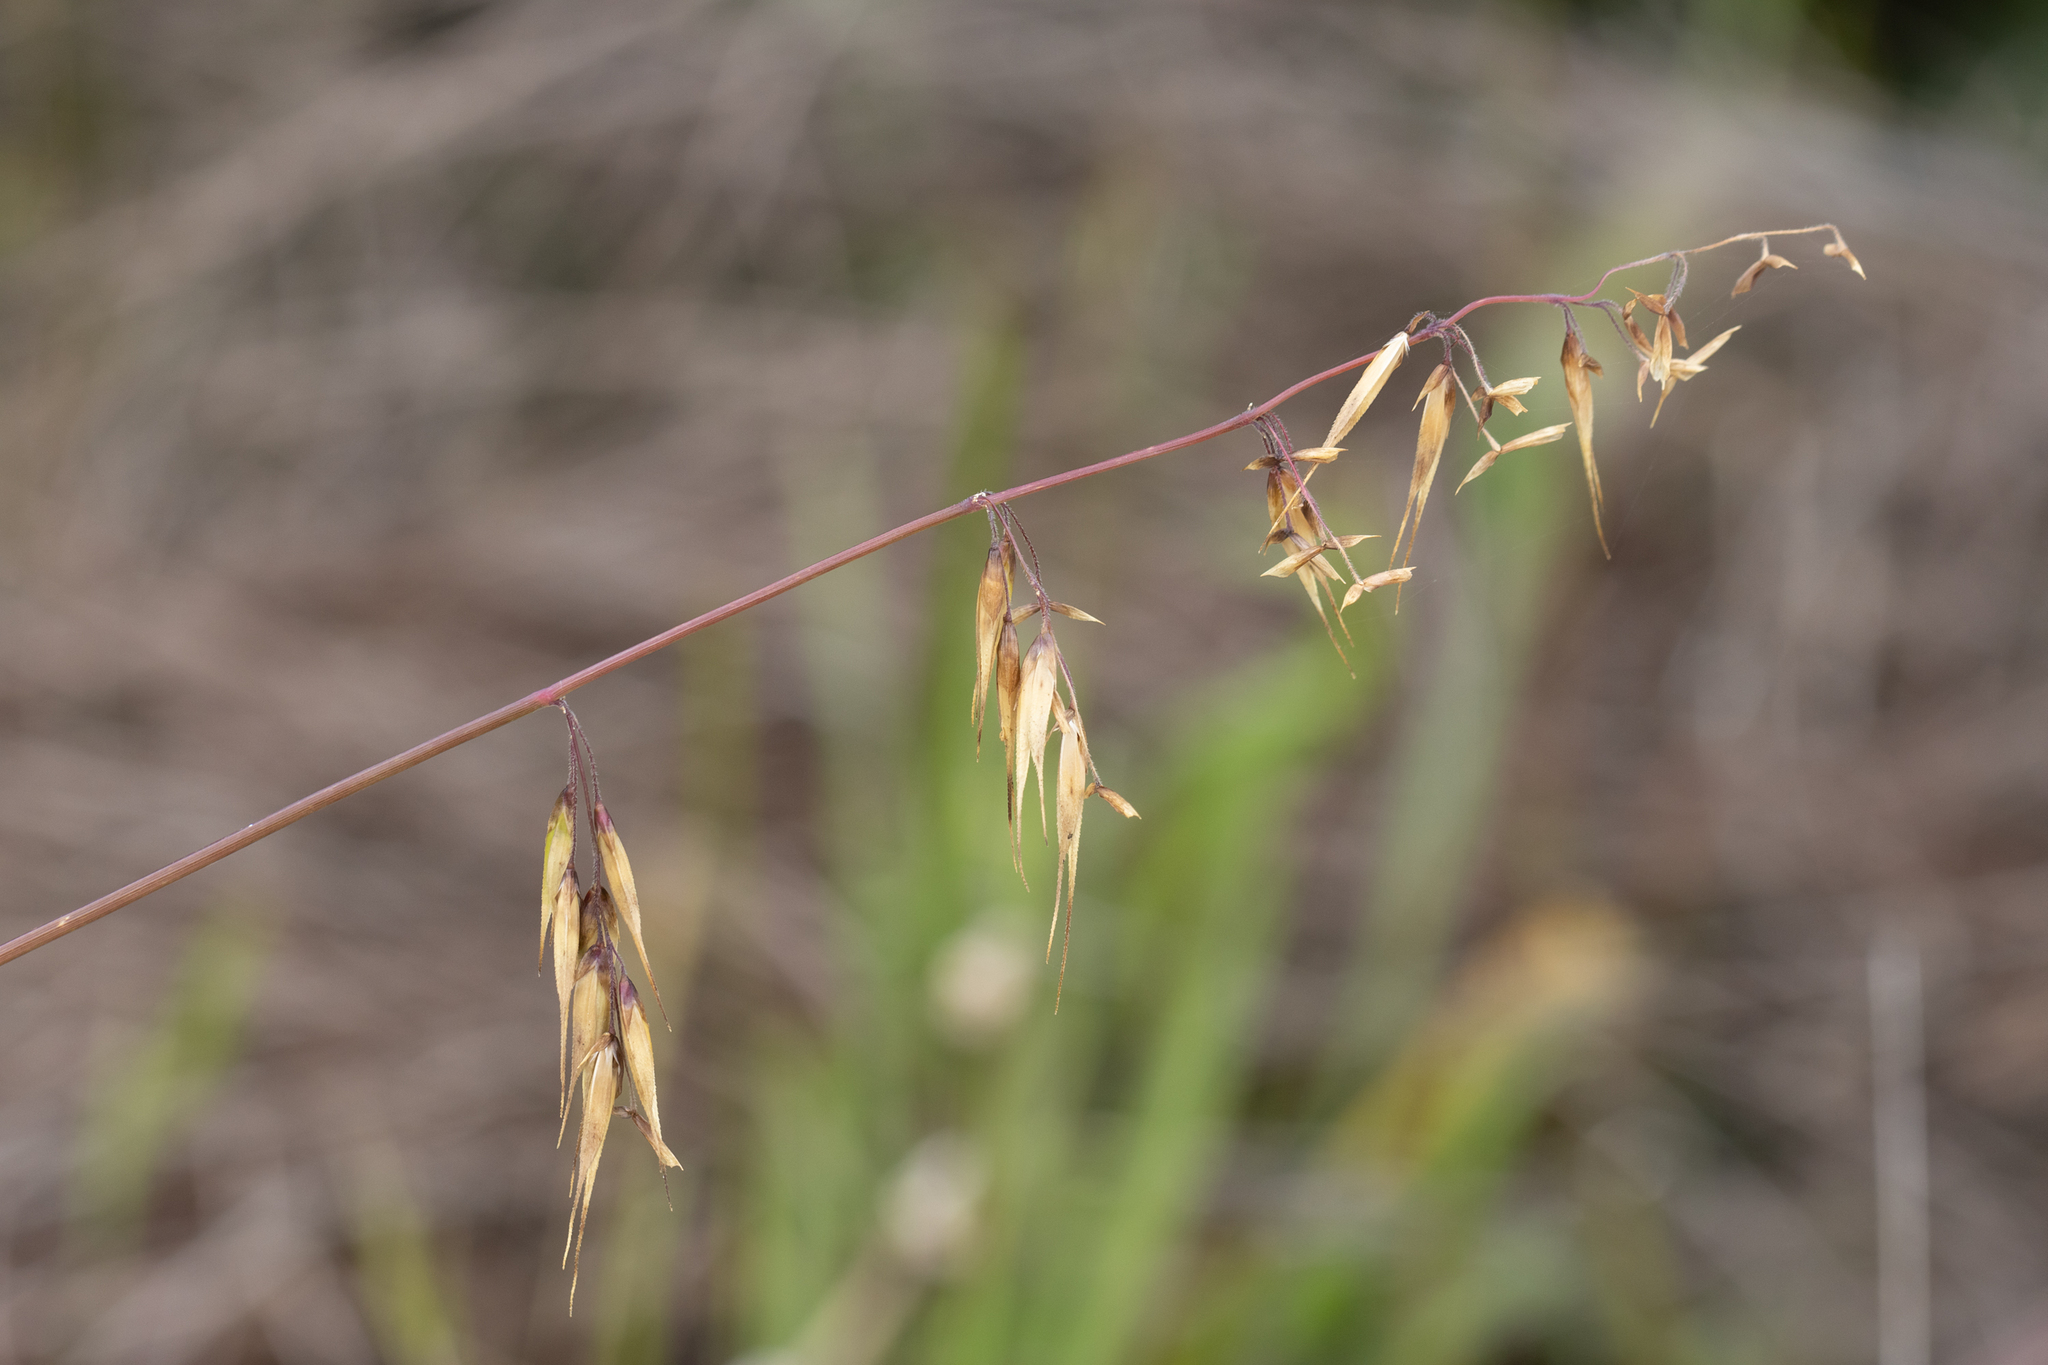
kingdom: Plantae
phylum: Tracheophyta
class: Liliopsida
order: Poales
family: Poaceae
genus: Ehrharta
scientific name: Ehrharta longiflora
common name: Longflowered veldtgrass
